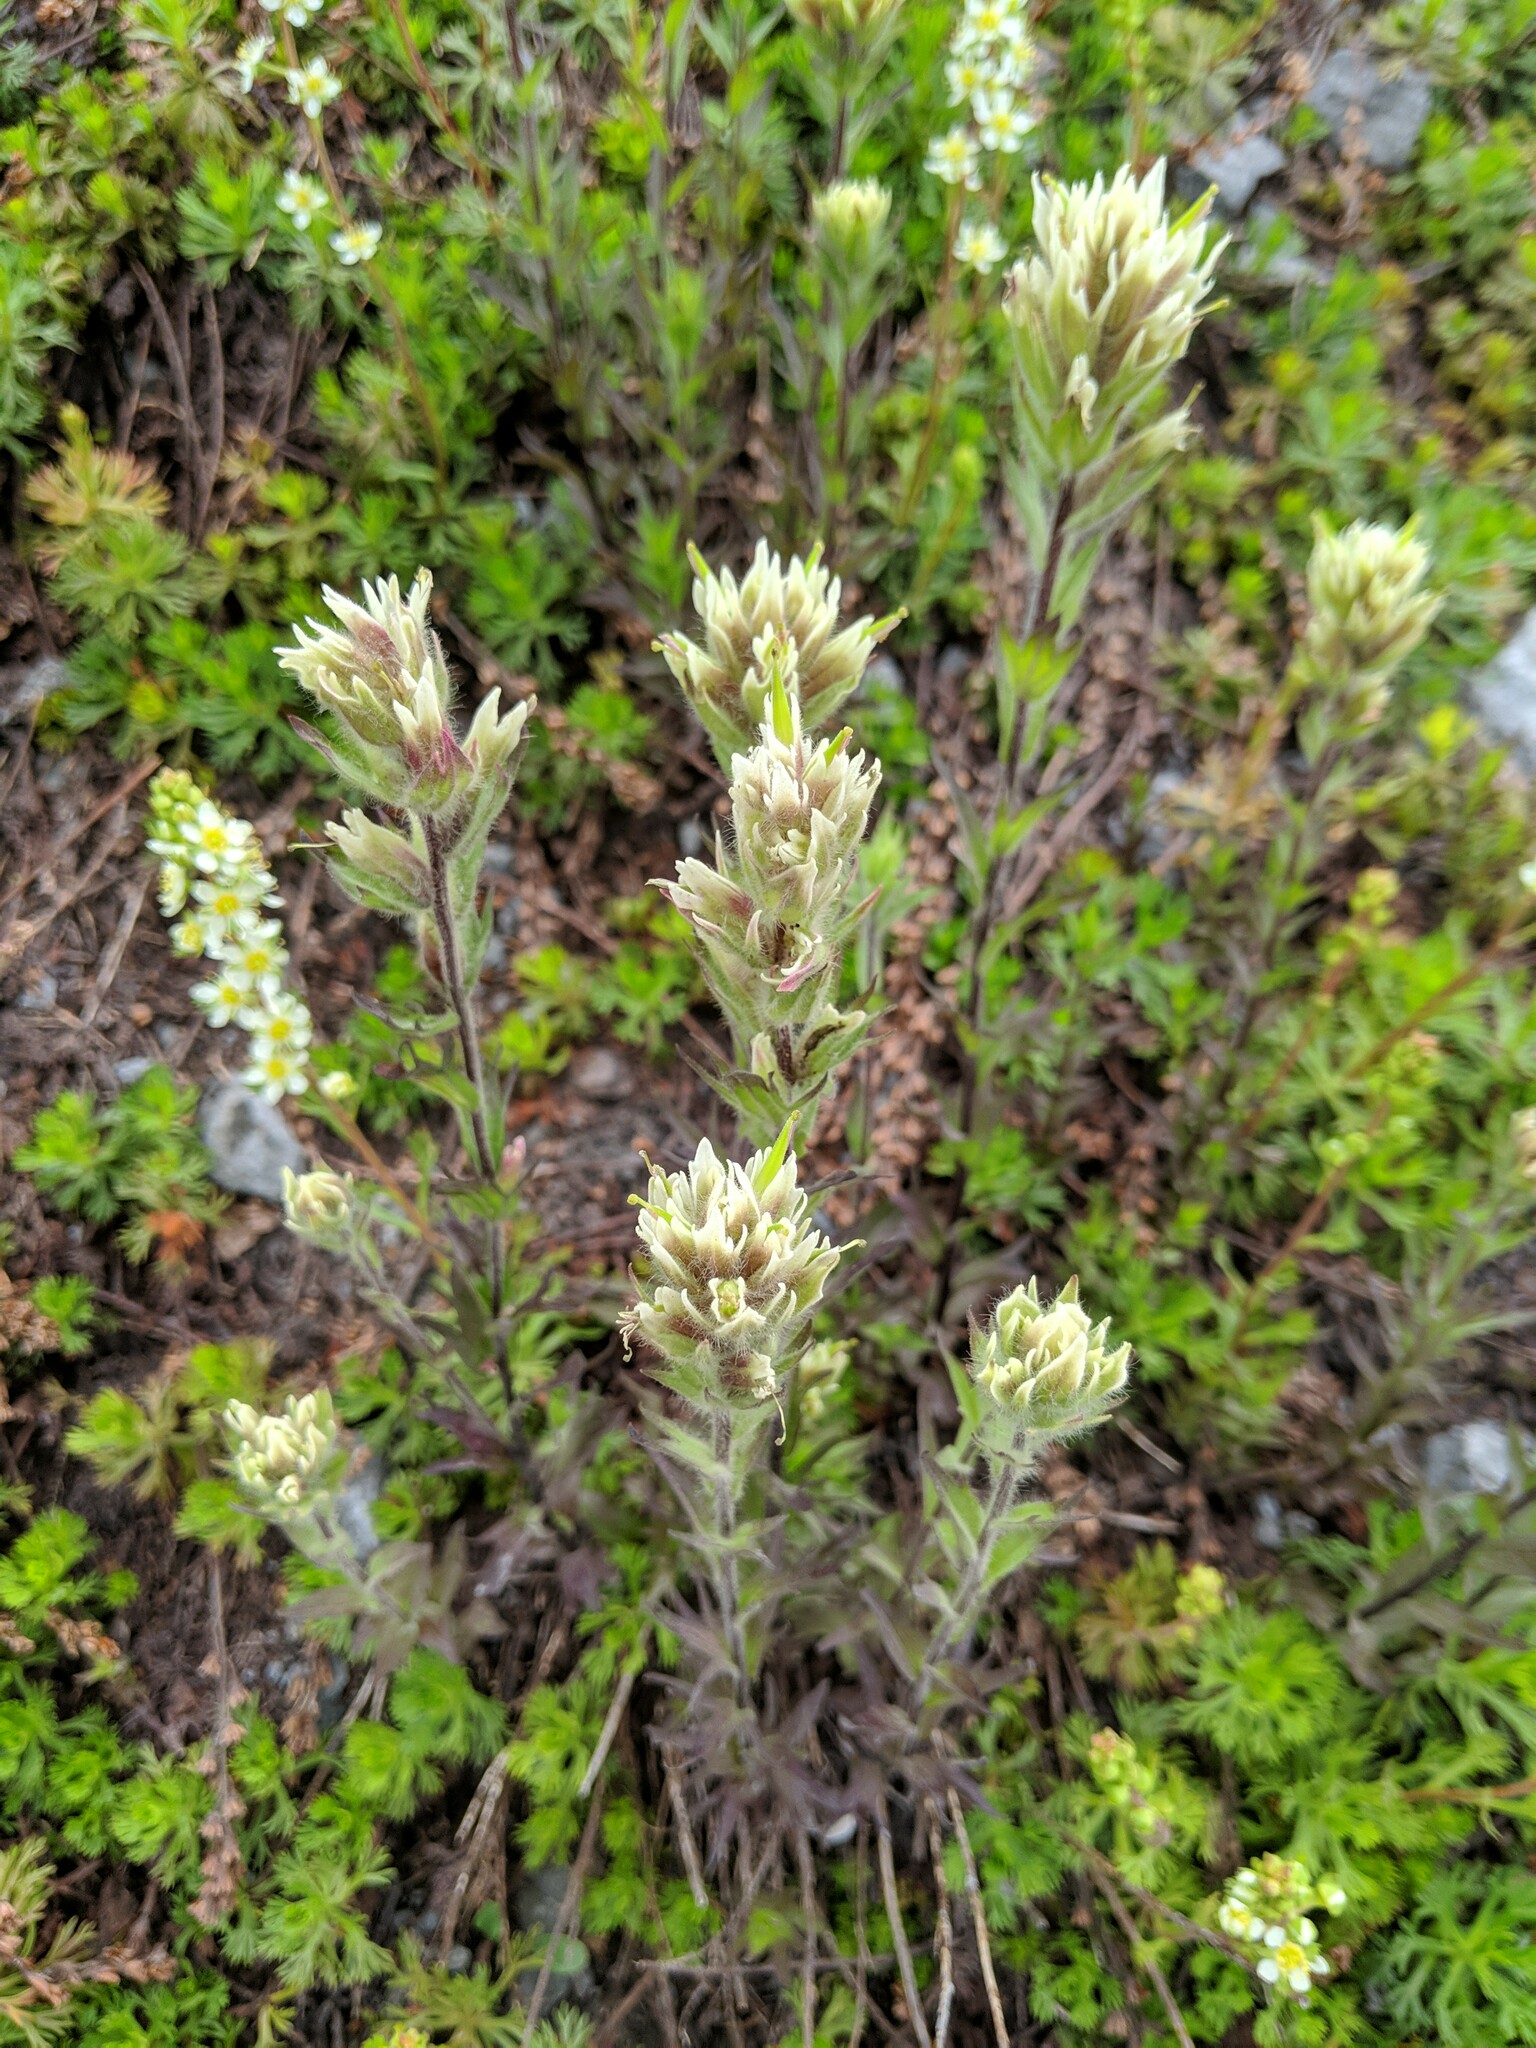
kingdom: Plantae
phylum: Tracheophyta
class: Magnoliopsida
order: Lamiales
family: Orobanchaceae
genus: Castilleja
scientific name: Castilleja parviflora
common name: Mountain paintbrush
